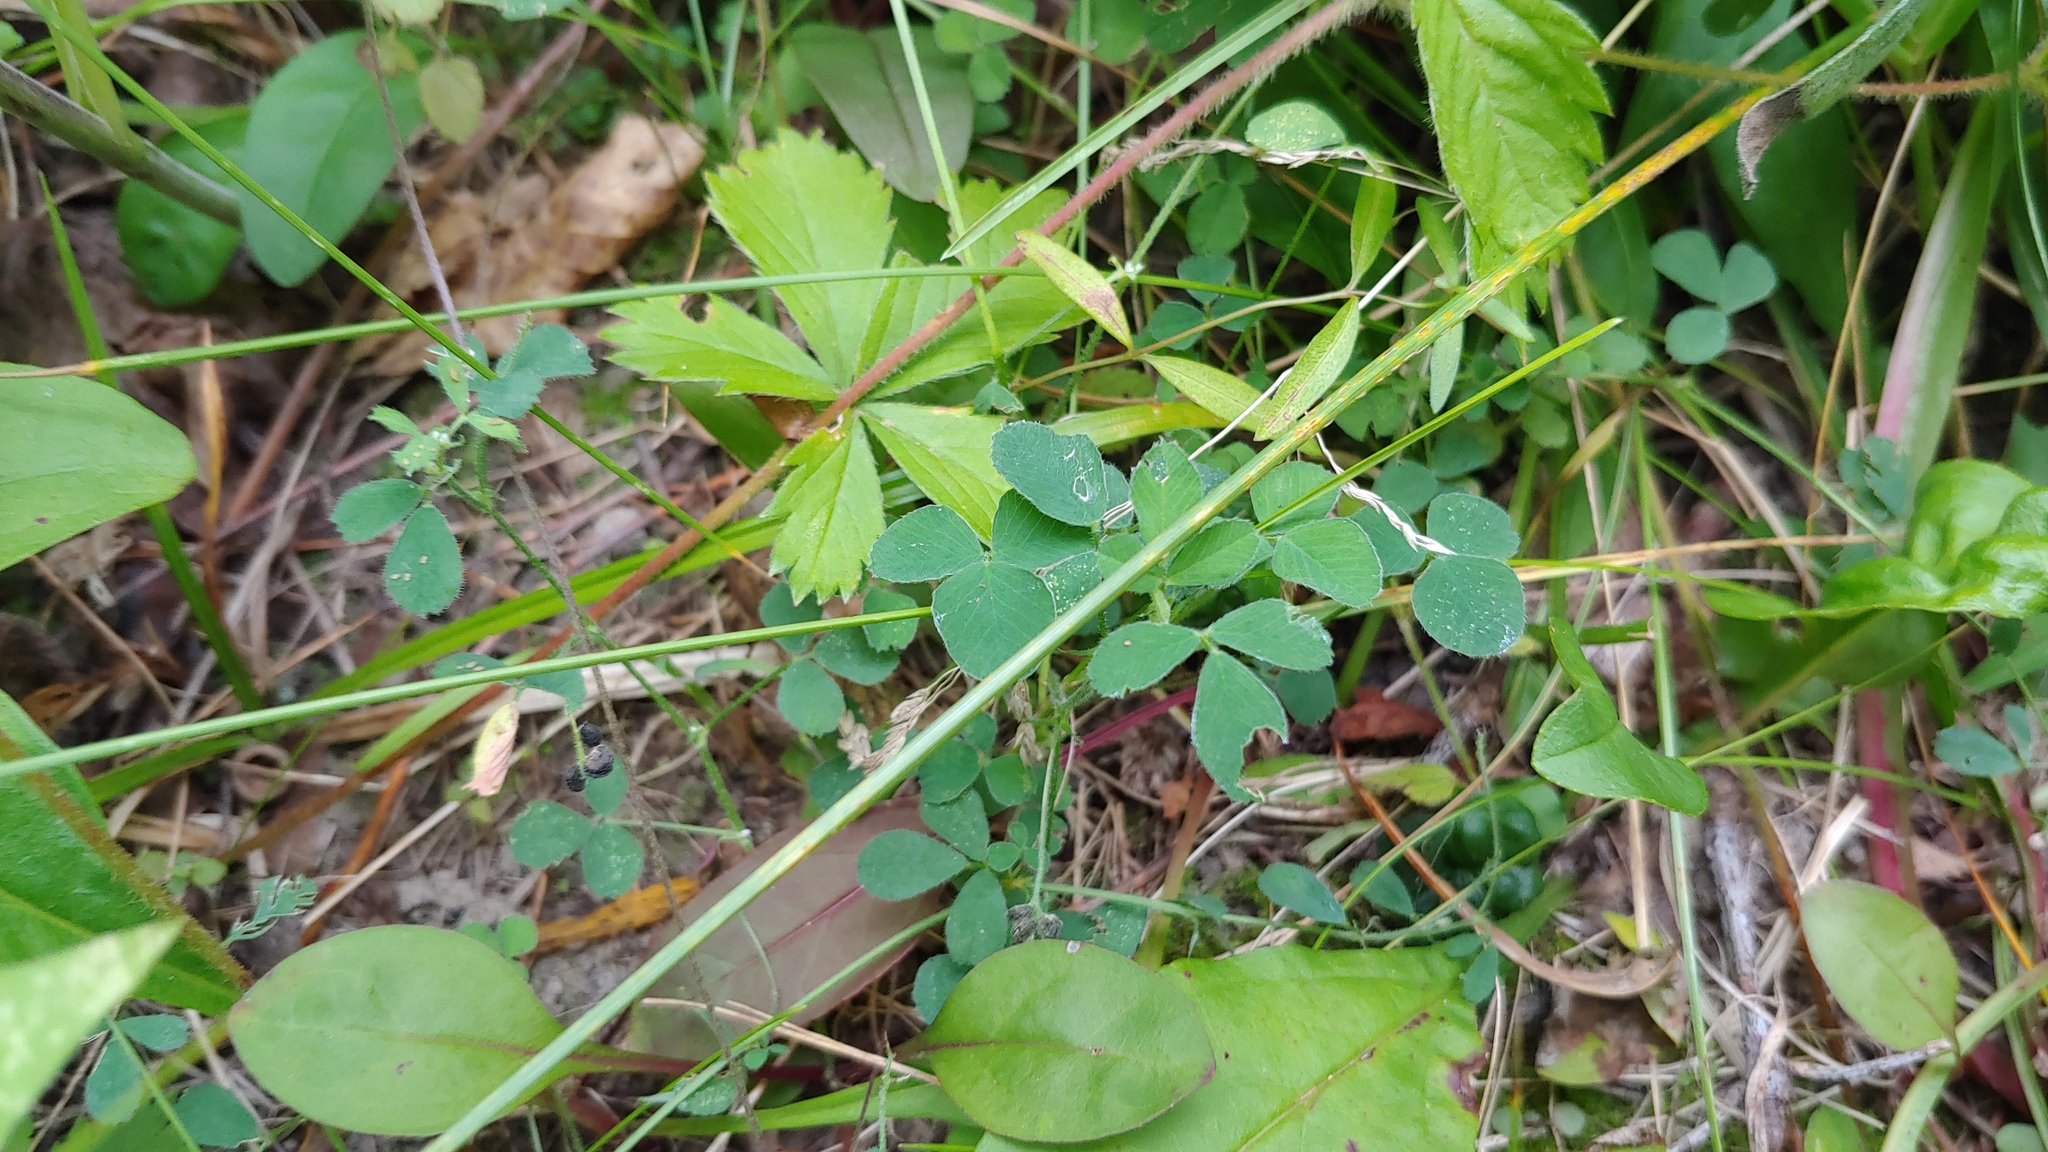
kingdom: Plantae
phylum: Tracheophyta
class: Magnoliopsida
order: Fabales
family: Fabaceae
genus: Medicago
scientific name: Medicago lupulina
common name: Black medick
